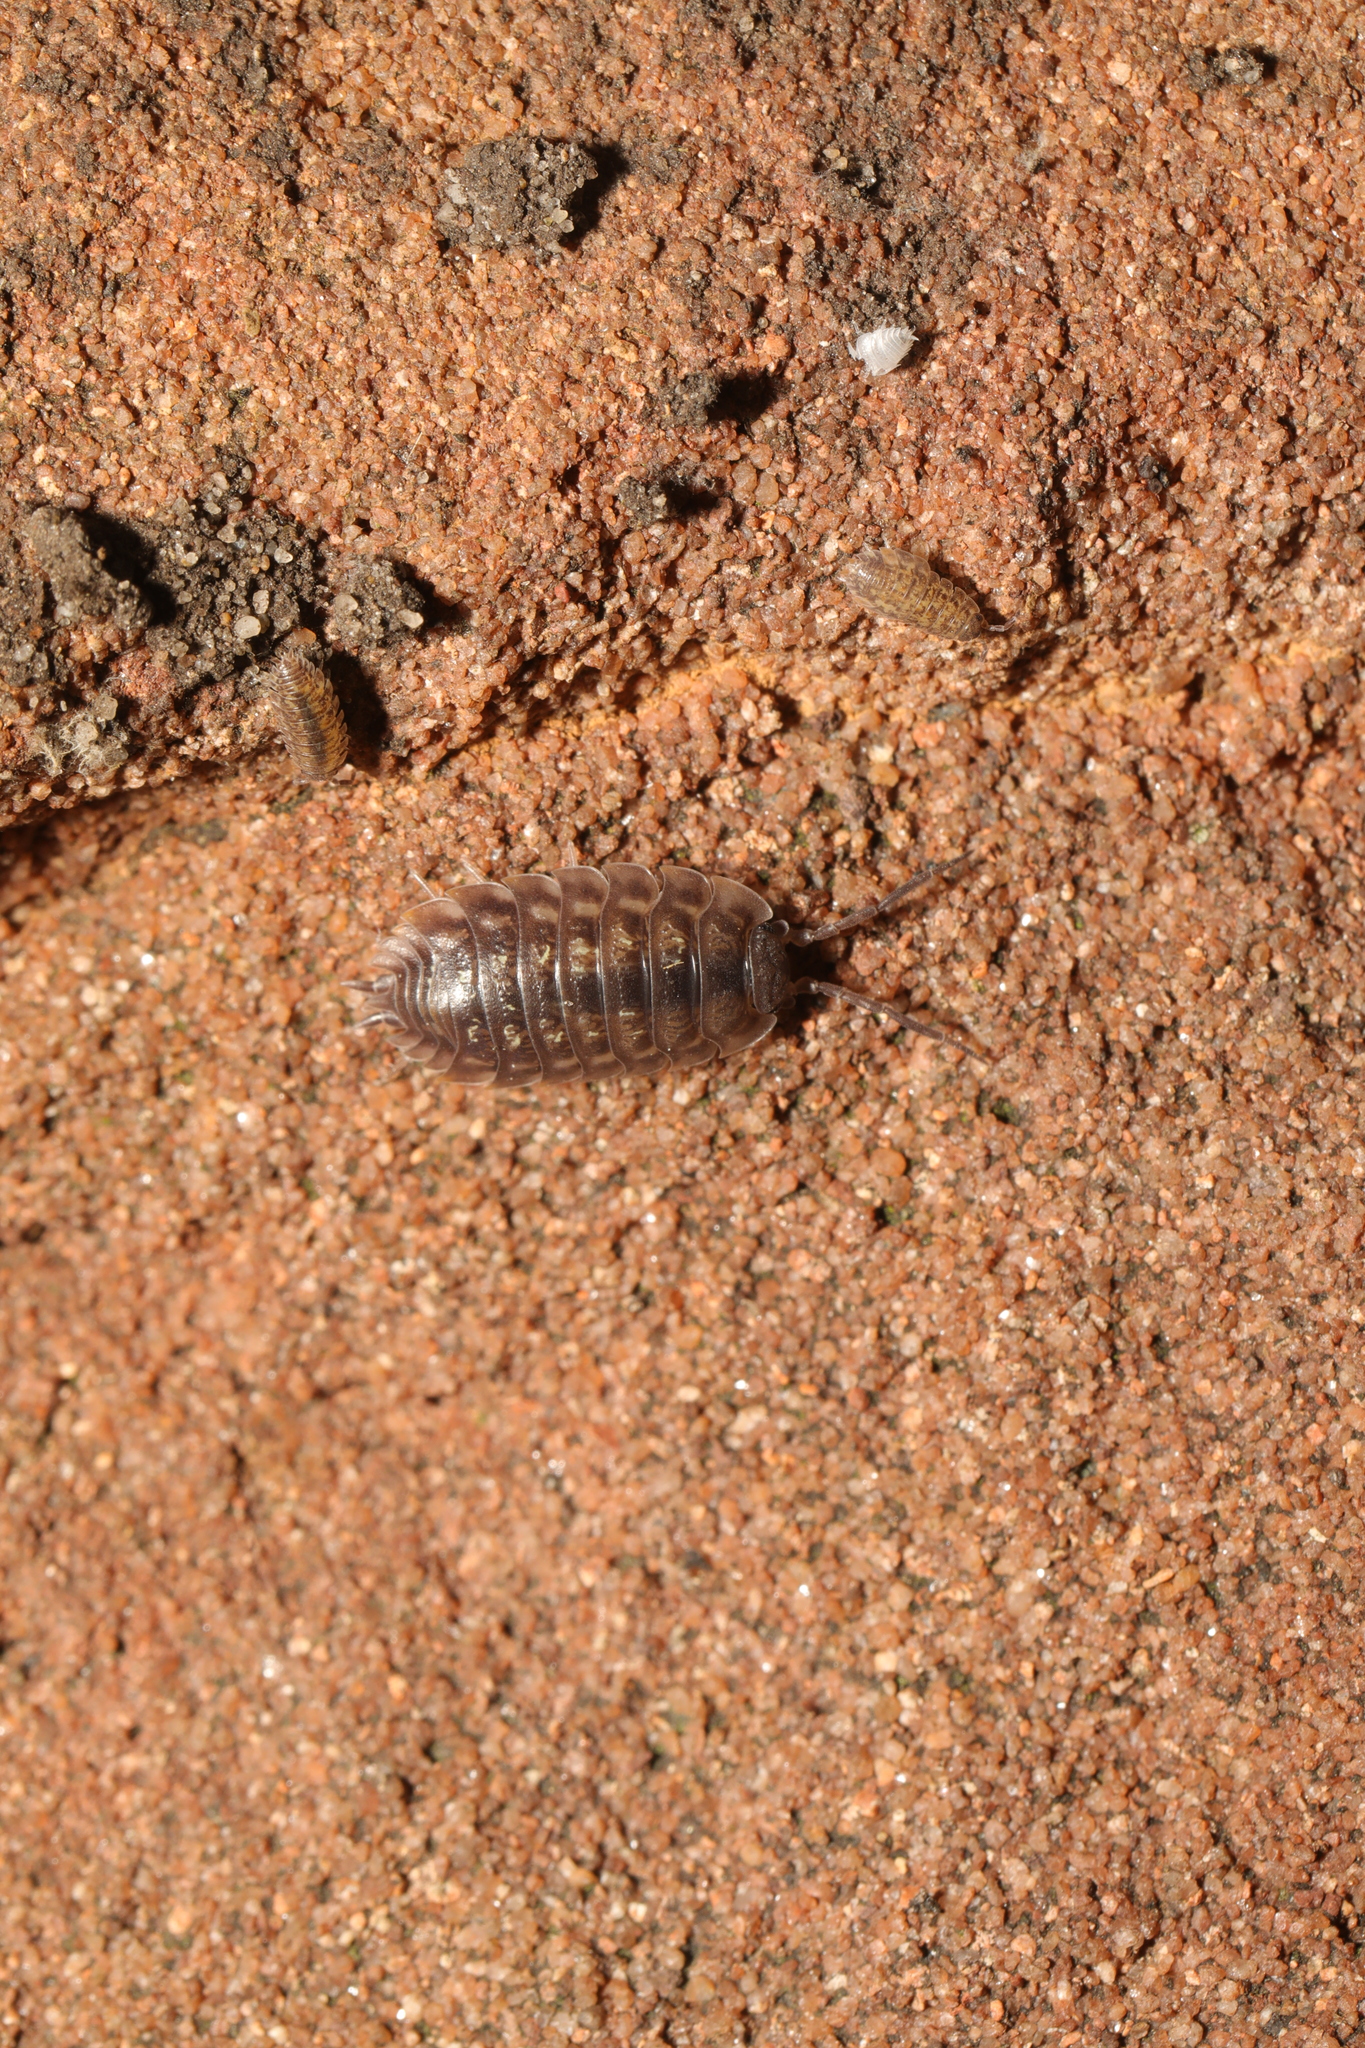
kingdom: Animalia
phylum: Arthropoda
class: Malacostraca
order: Isopoda
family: Oniscidae
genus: Oniscus
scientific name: Oniscus asellus
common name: Common shiny woodlouse
